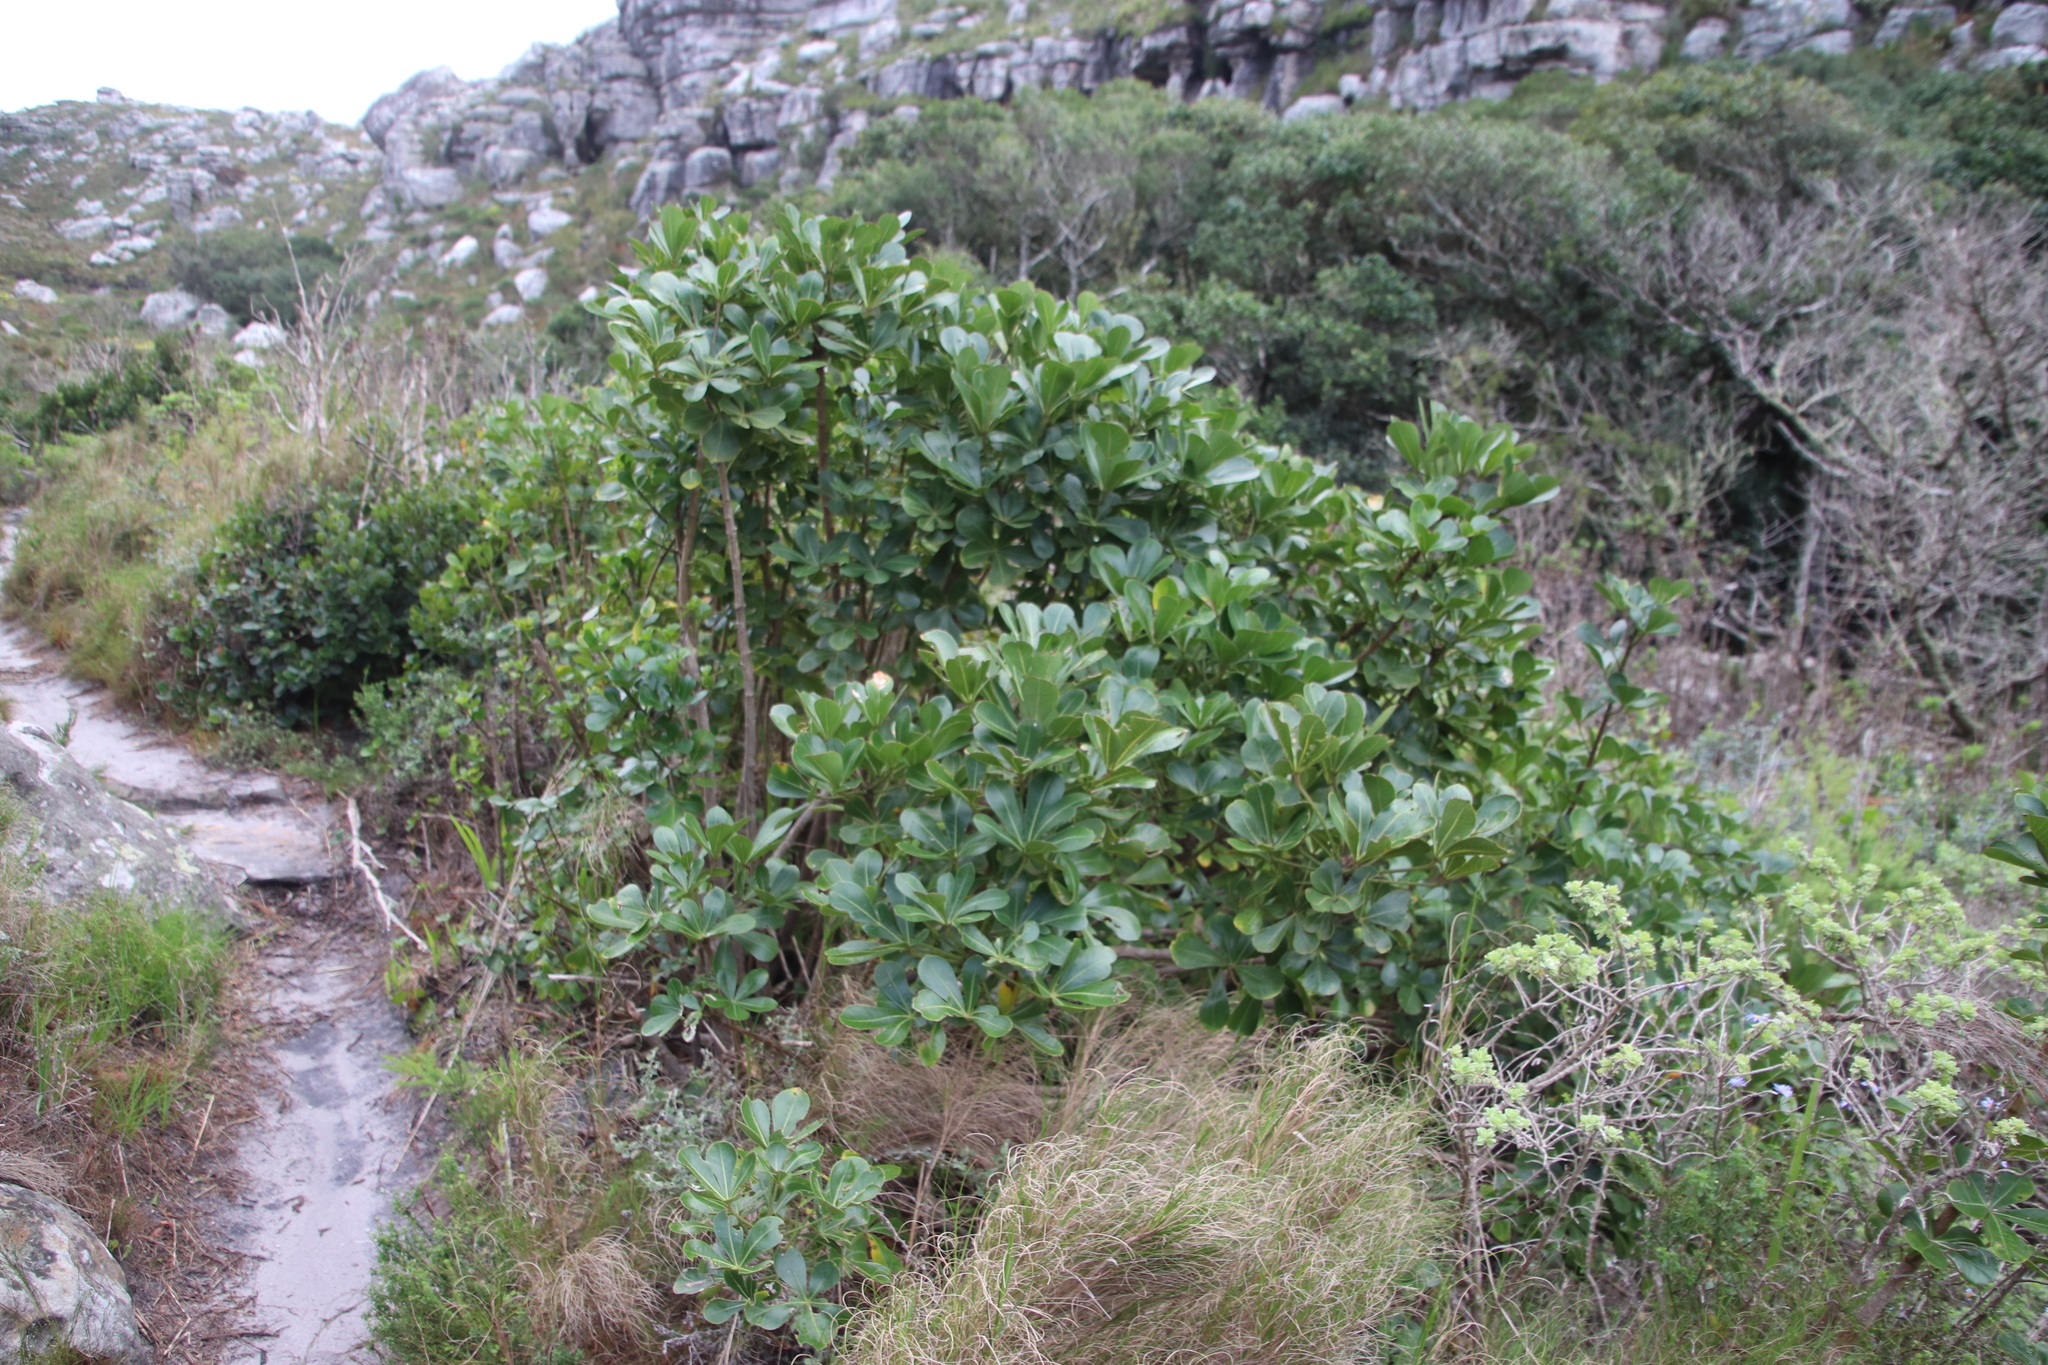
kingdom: Plantae
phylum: Tracheophyta
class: Magnoliopsida
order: Apiales
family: Araliaceae
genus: Cussonia
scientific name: Cussonia thyrsiflora
